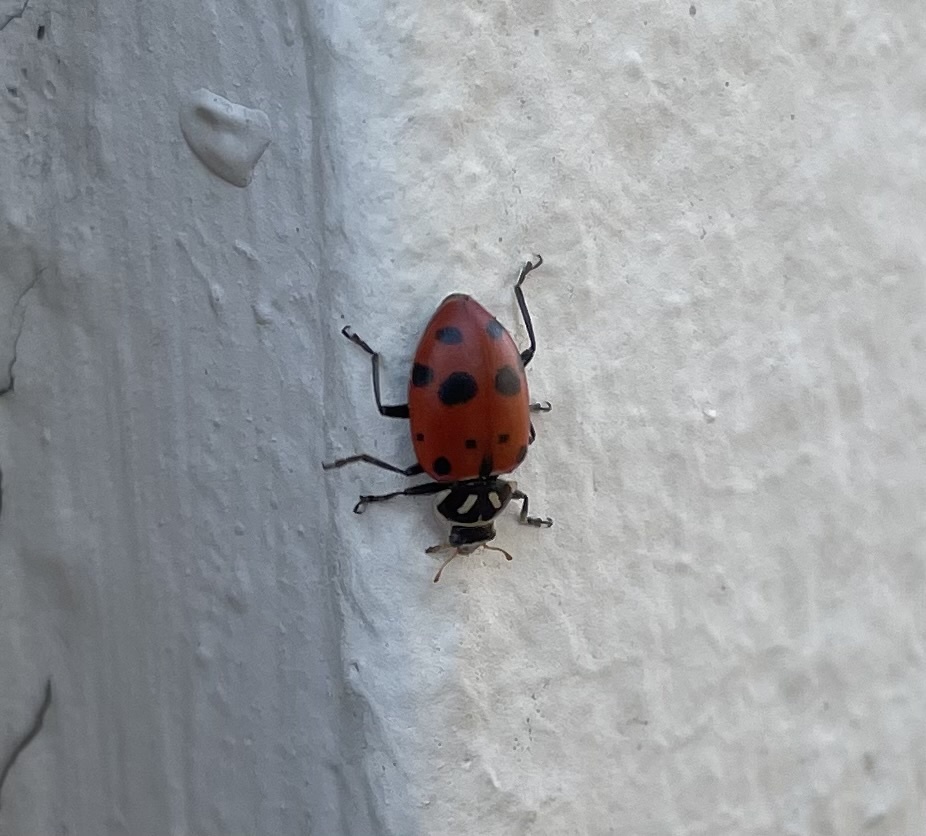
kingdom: Animalia
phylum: Arthropoda
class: Insecta
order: Coleoptera
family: Coccinellidae
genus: Hippodamia
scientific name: Hippodamia convergens
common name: Convergent lady beetle
